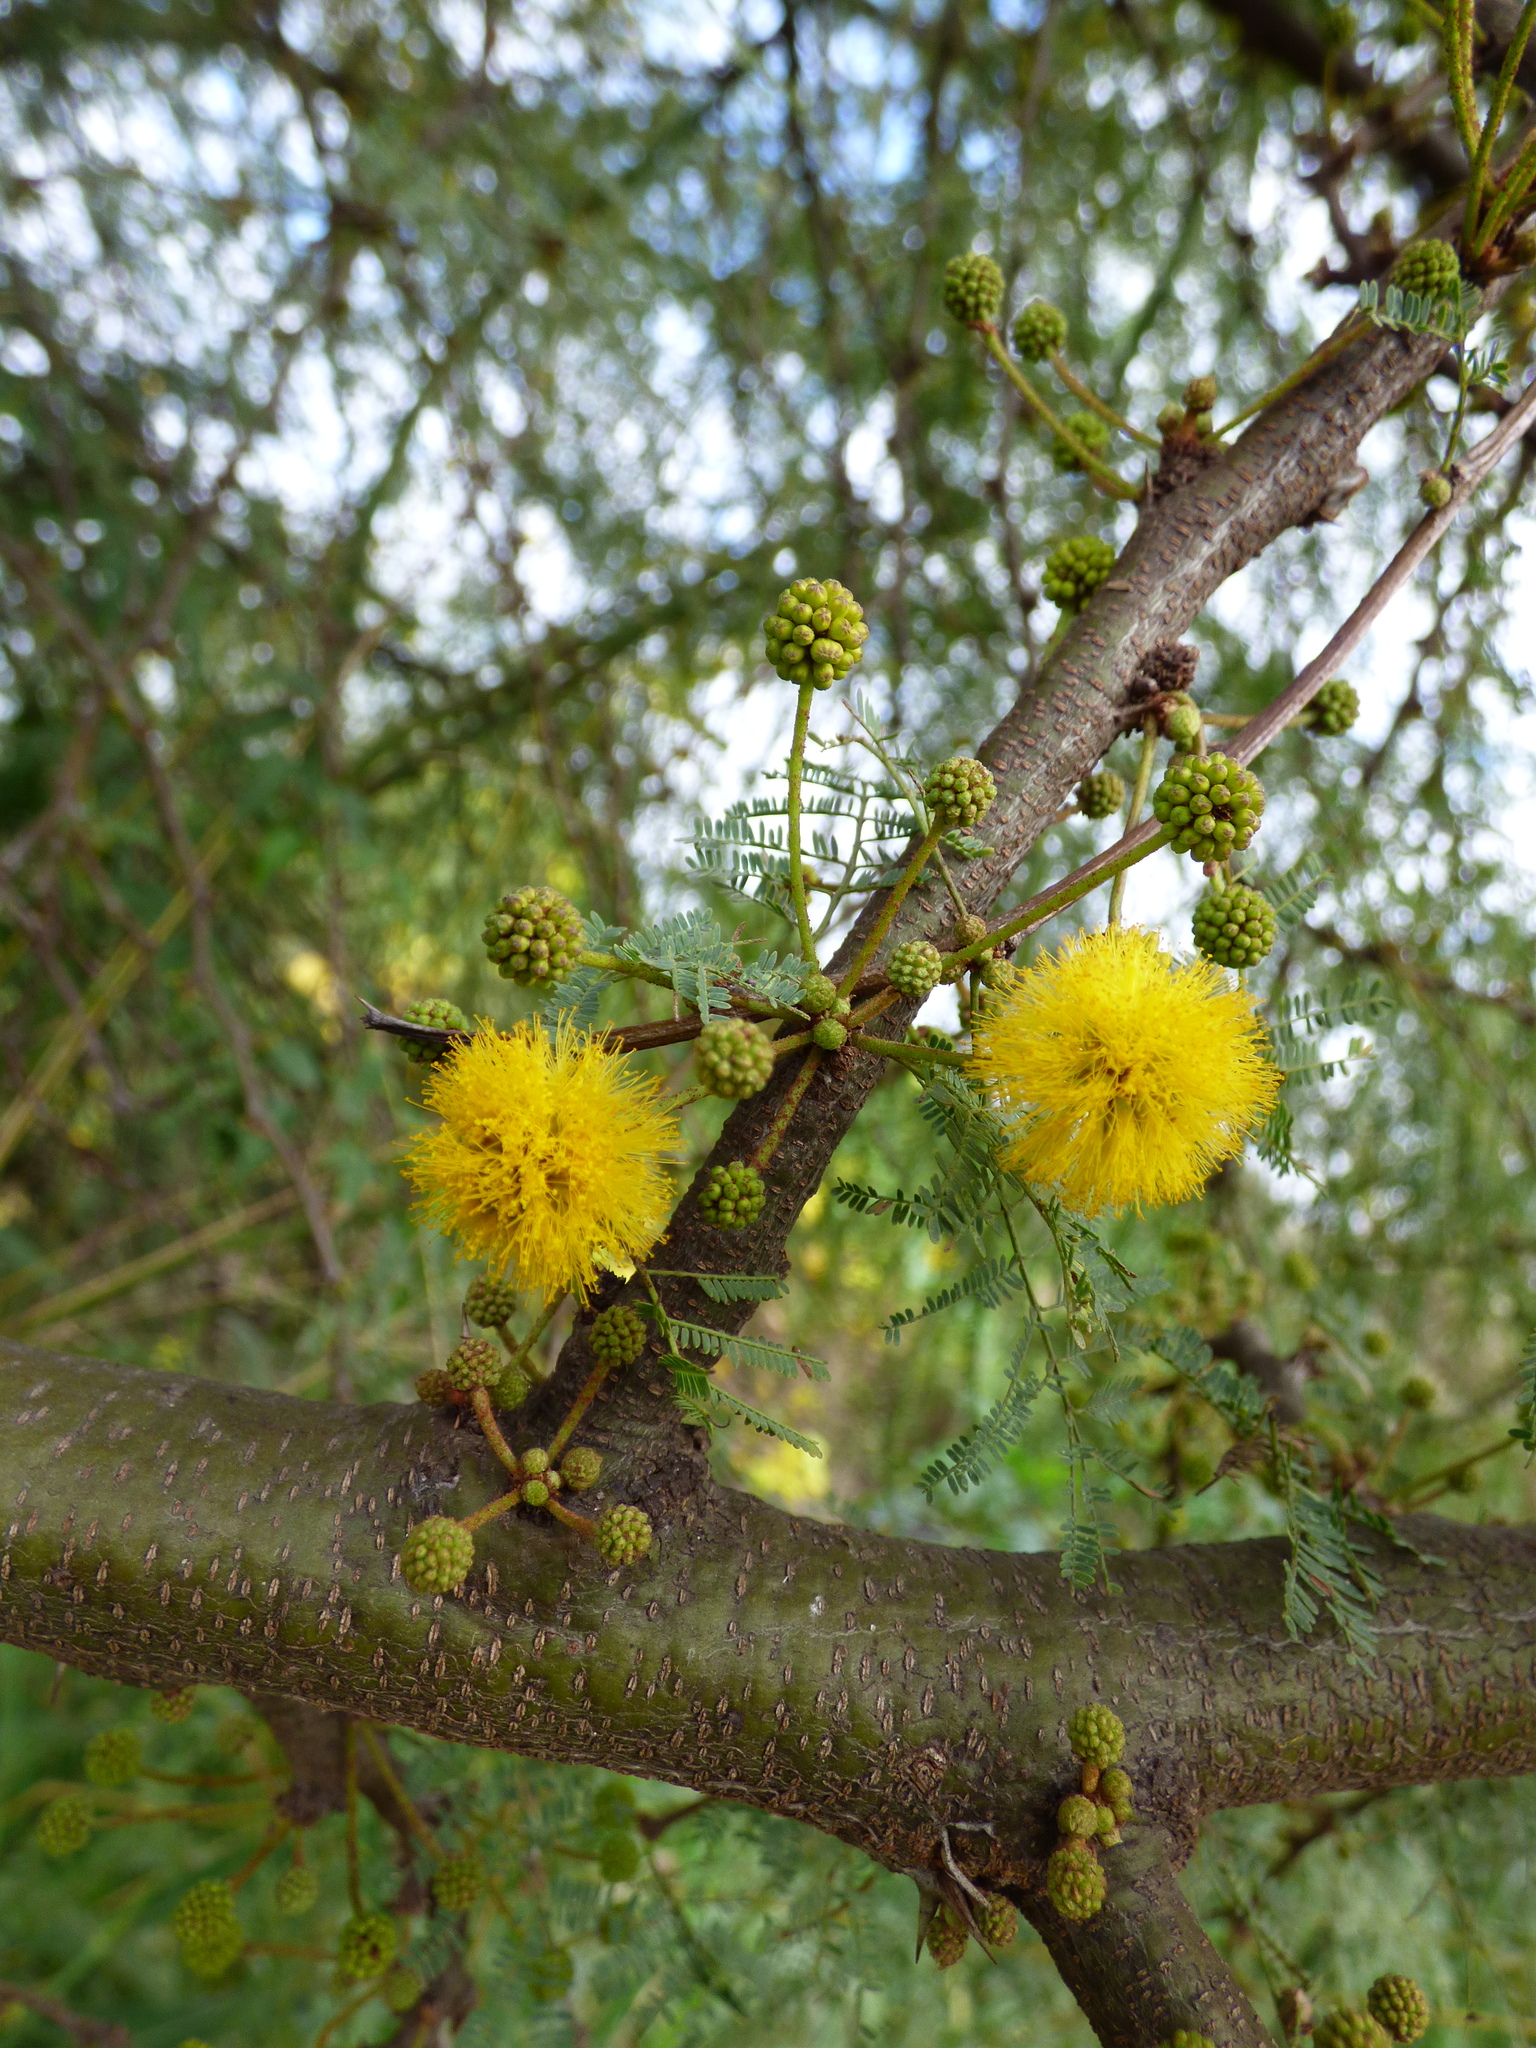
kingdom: Plantae
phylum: Tracheophyta
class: Magnoliopsida
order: Fabales
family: Fabaceae
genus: Vachellia
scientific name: Vachellia caven
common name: Roman cassie
